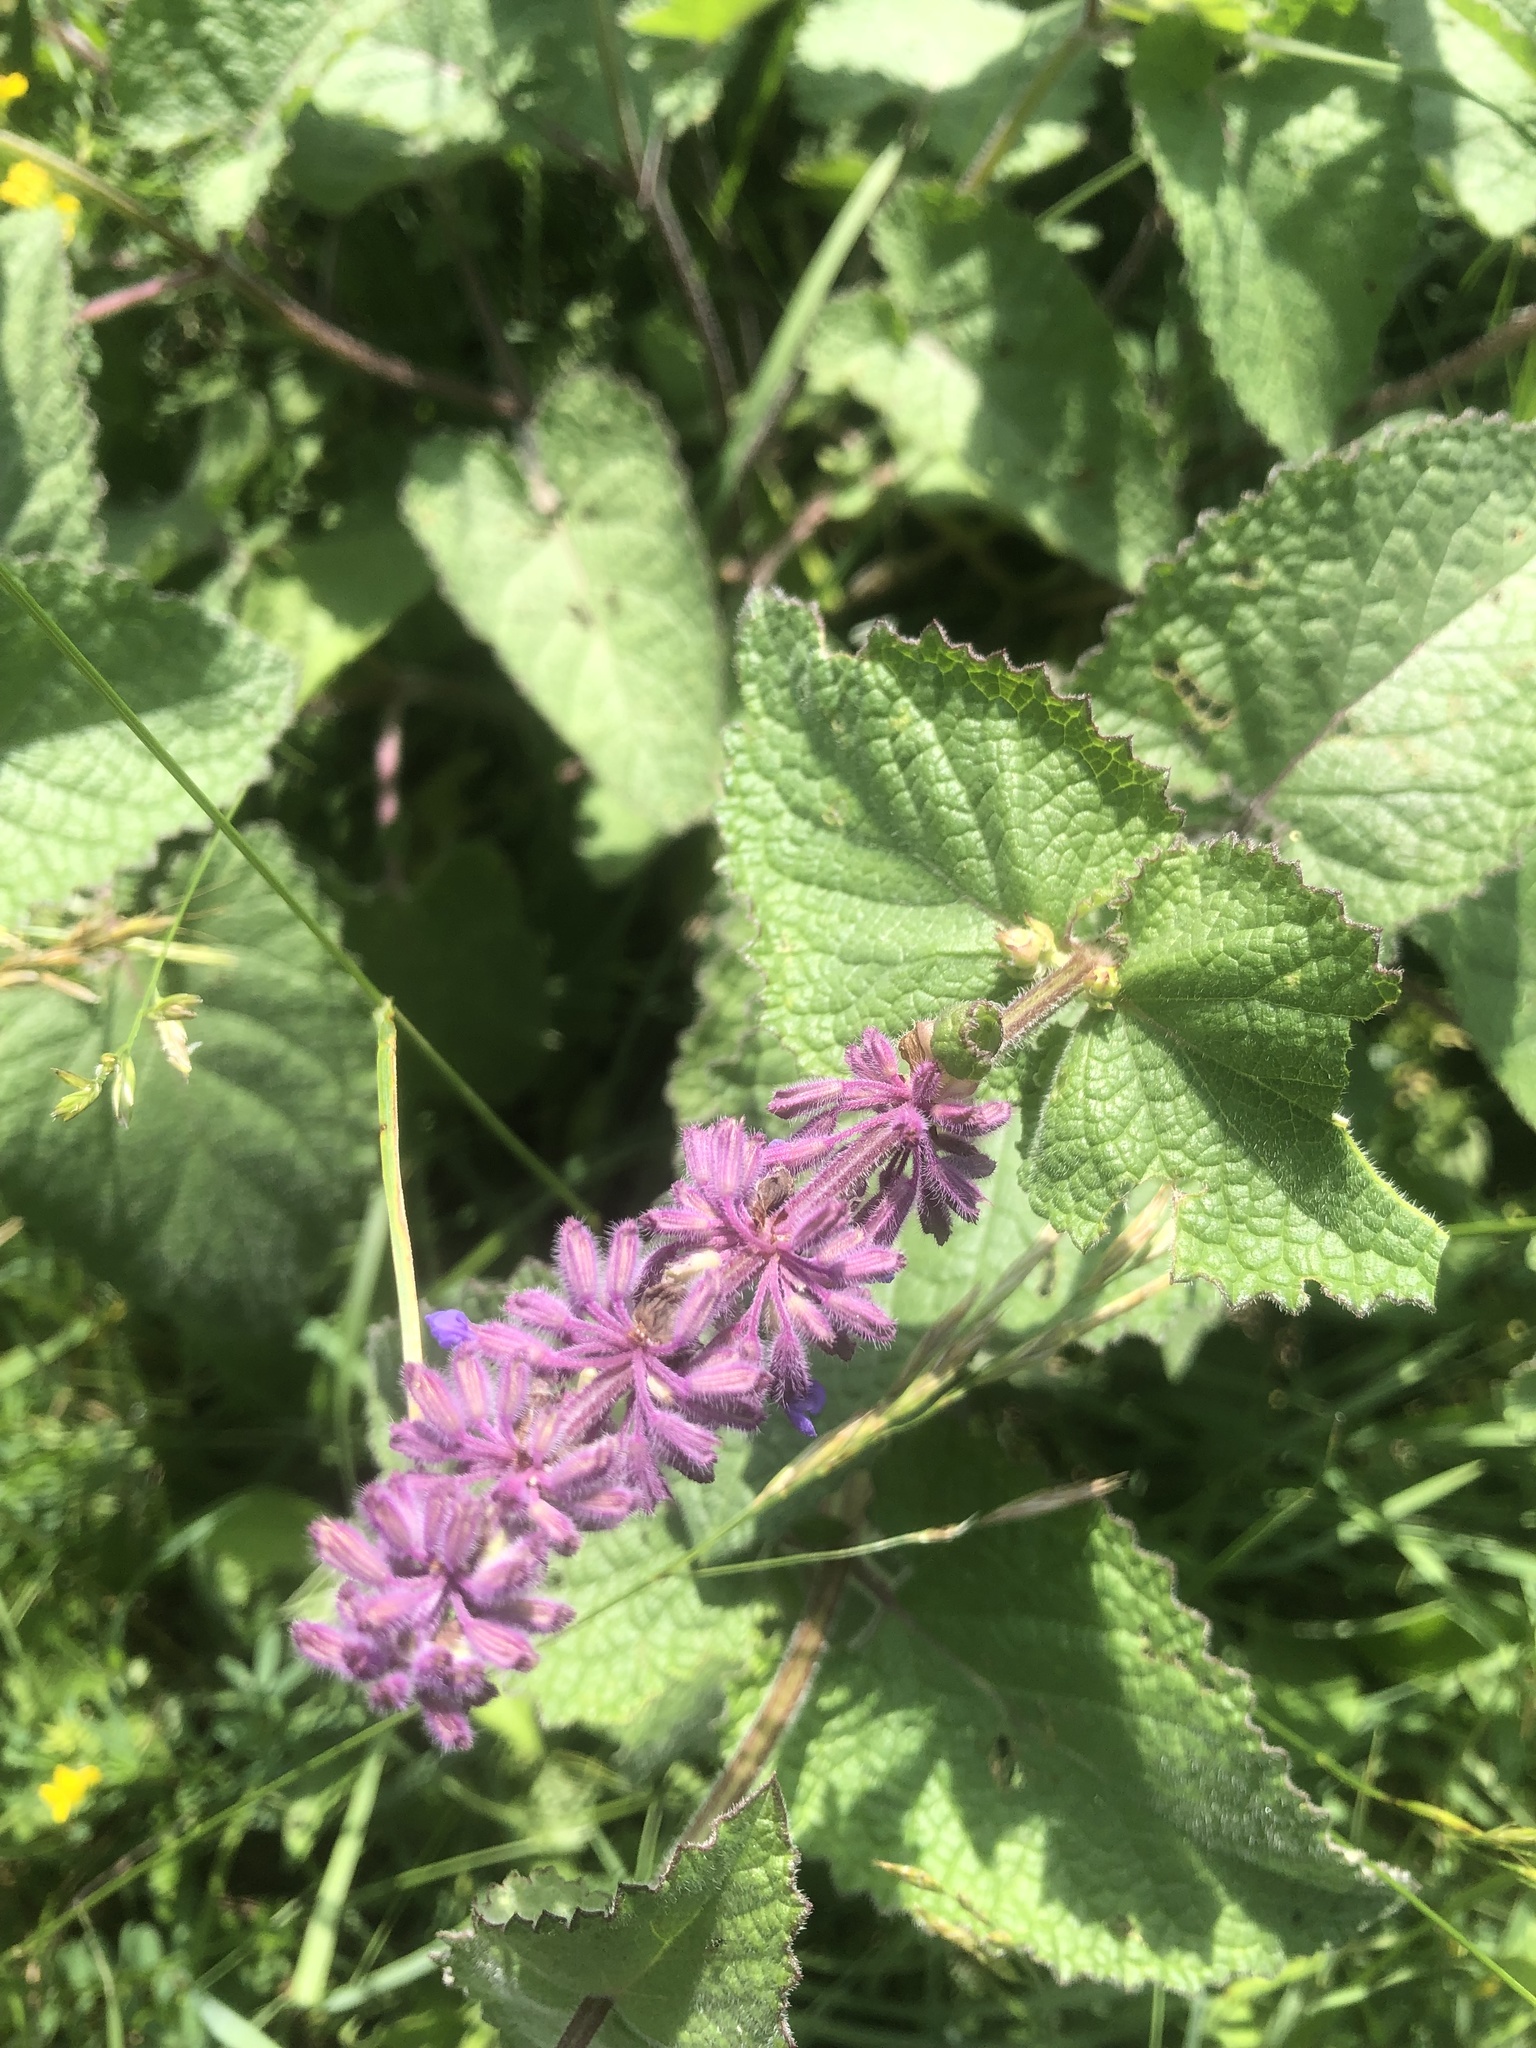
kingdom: Plantae
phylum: Tracheophyta
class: Magnoliopsida
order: Lamiales
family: Lamiaceae
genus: Salvia
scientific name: Salvia verticillata
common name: Whorled clary
